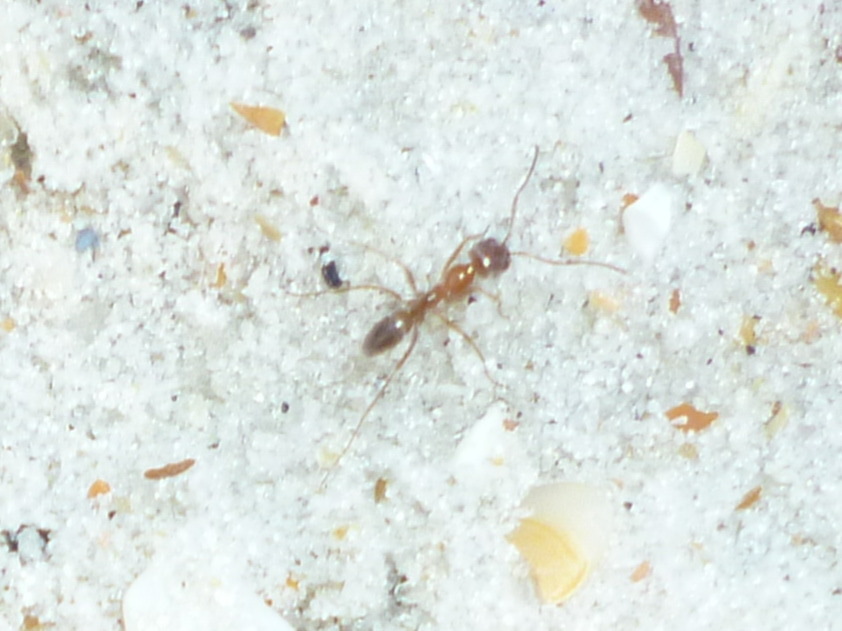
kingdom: Animalia
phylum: Arthropoda
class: Insecta
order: Hymenoptera
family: Formicidae
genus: Dorymyrmex
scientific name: Dorymyrmex bureni
